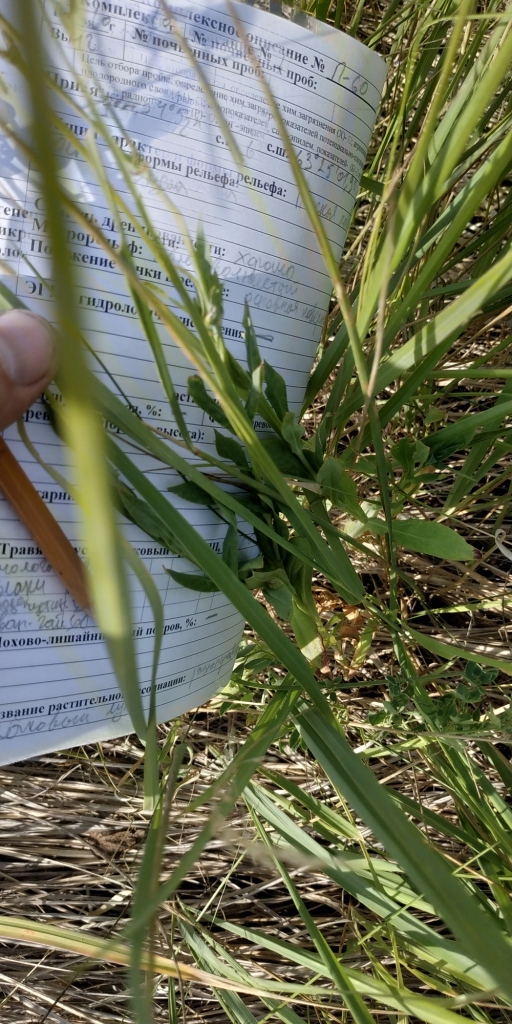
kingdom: Plantae
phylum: Tracheophyta
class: Magnoliopsida
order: Caryophyllales
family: Caryophyllaceae
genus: Silene
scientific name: Silene vulgaris
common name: Bladder campion
